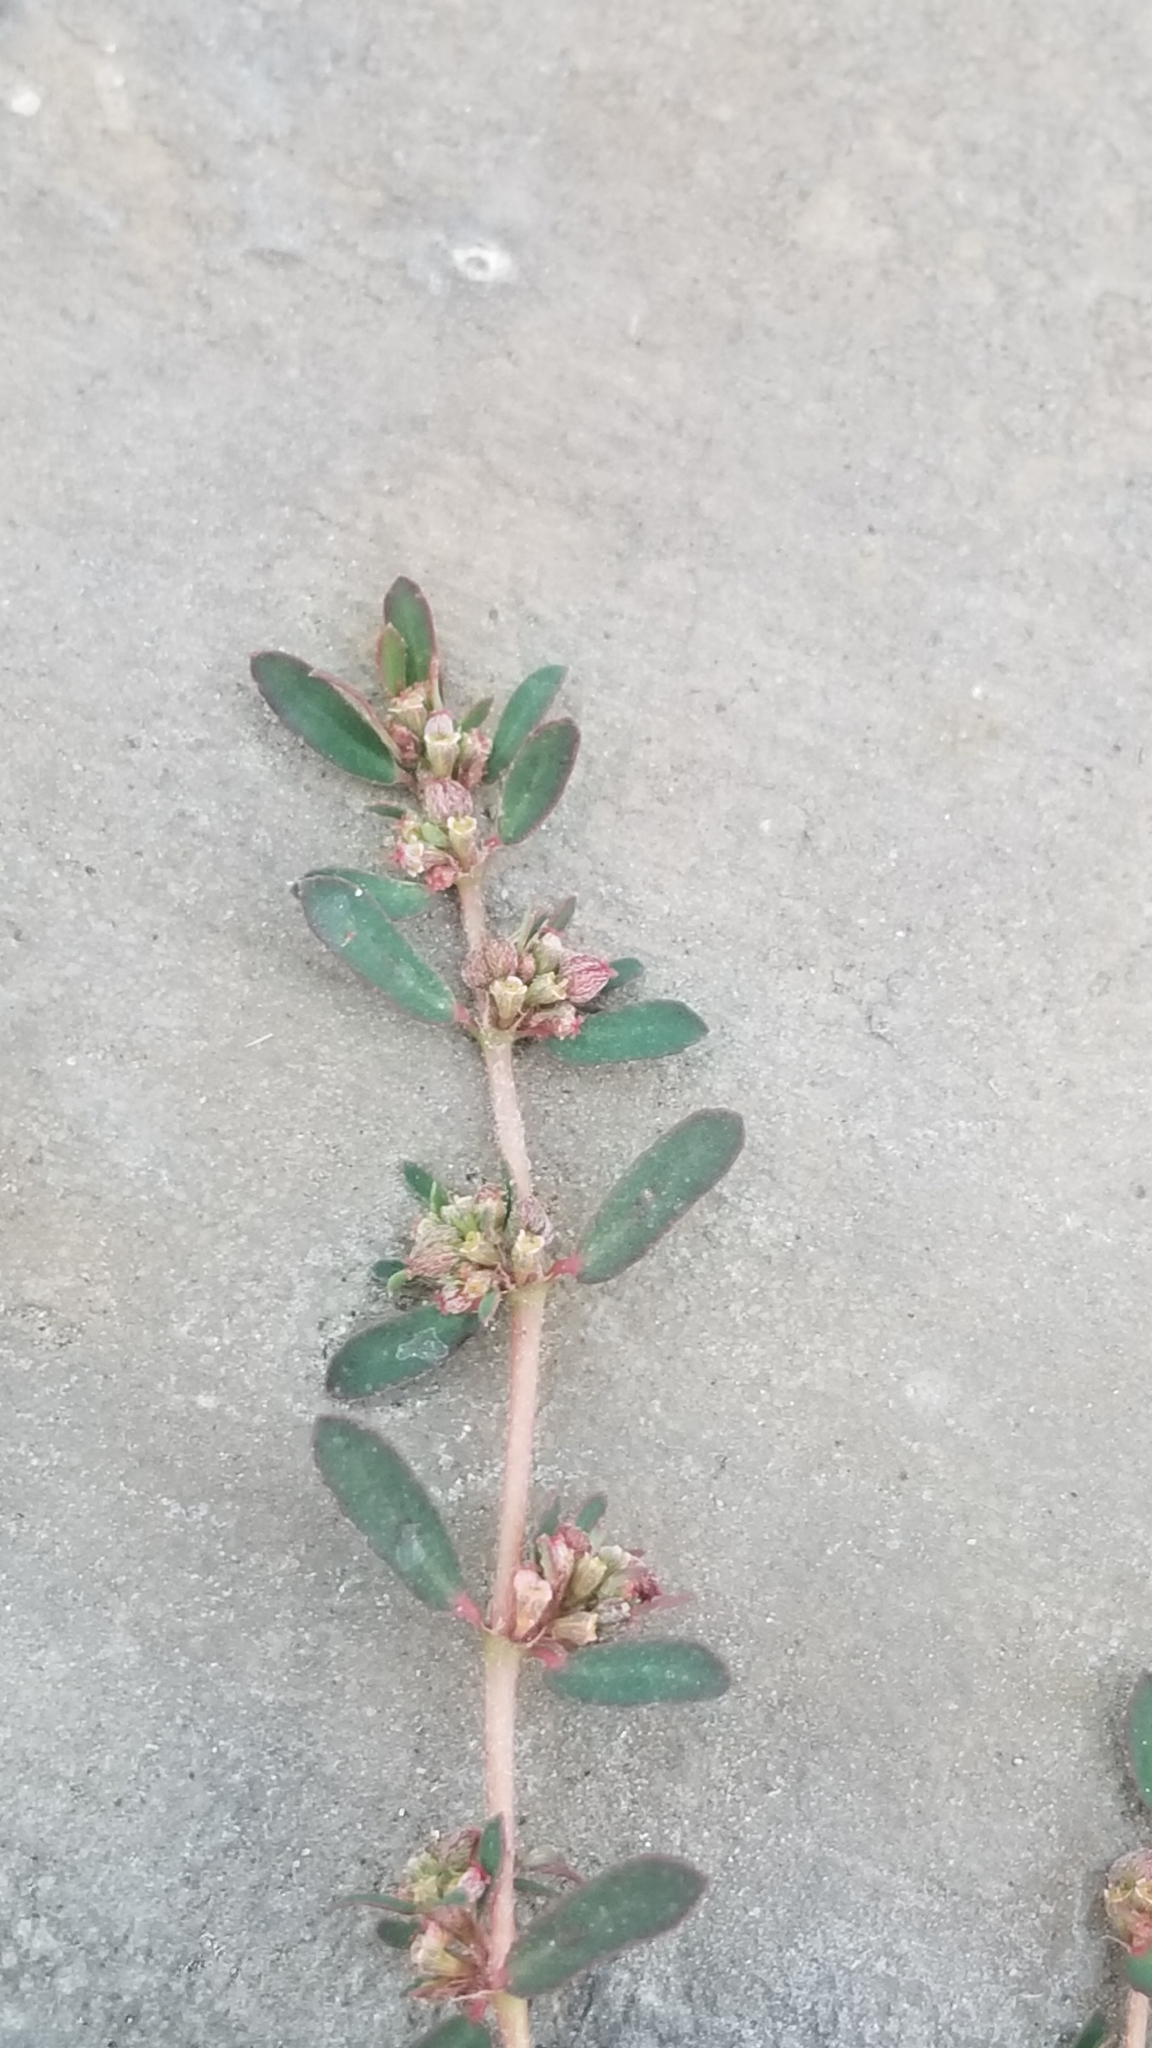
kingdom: Plantae
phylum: Tracheophyta
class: Magnoliopsida
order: Malpighiales
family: Euphorbiaceae
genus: Euphorbia
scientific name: Euphorbia maculata
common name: Spotted spurge
